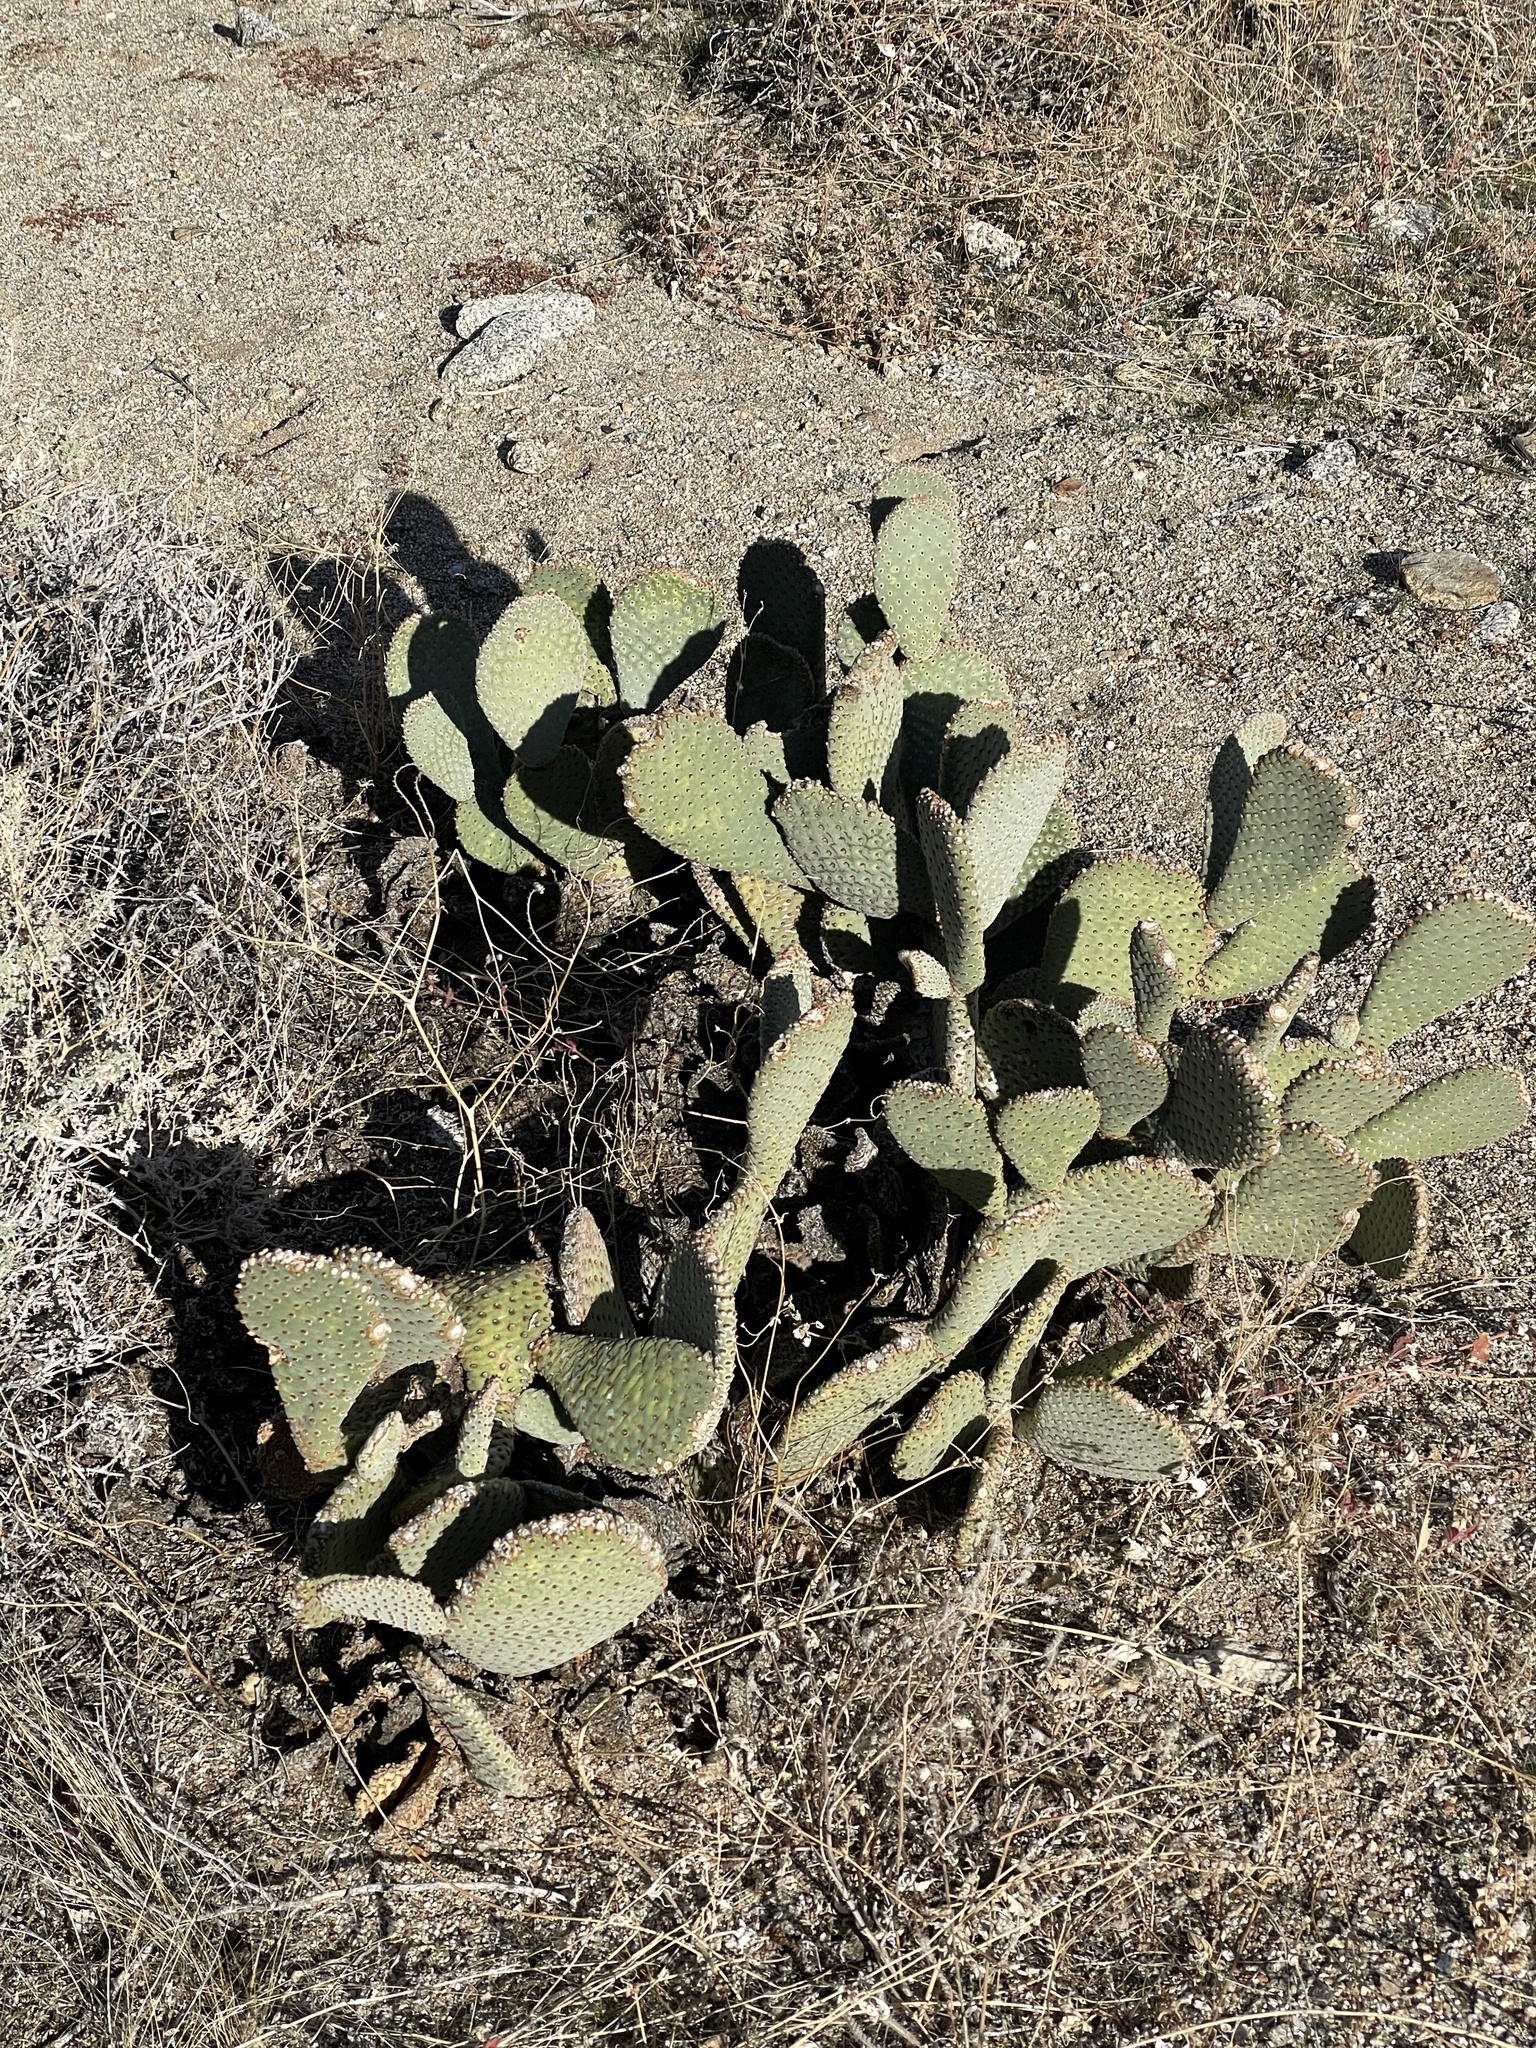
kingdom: Plantae
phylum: Tracheophyta
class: Magnoliopsida
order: Caryophyllales
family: Cactaceae
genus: Opuntia
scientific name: Opuntia basilaris
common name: Beavertail prickly-pear
